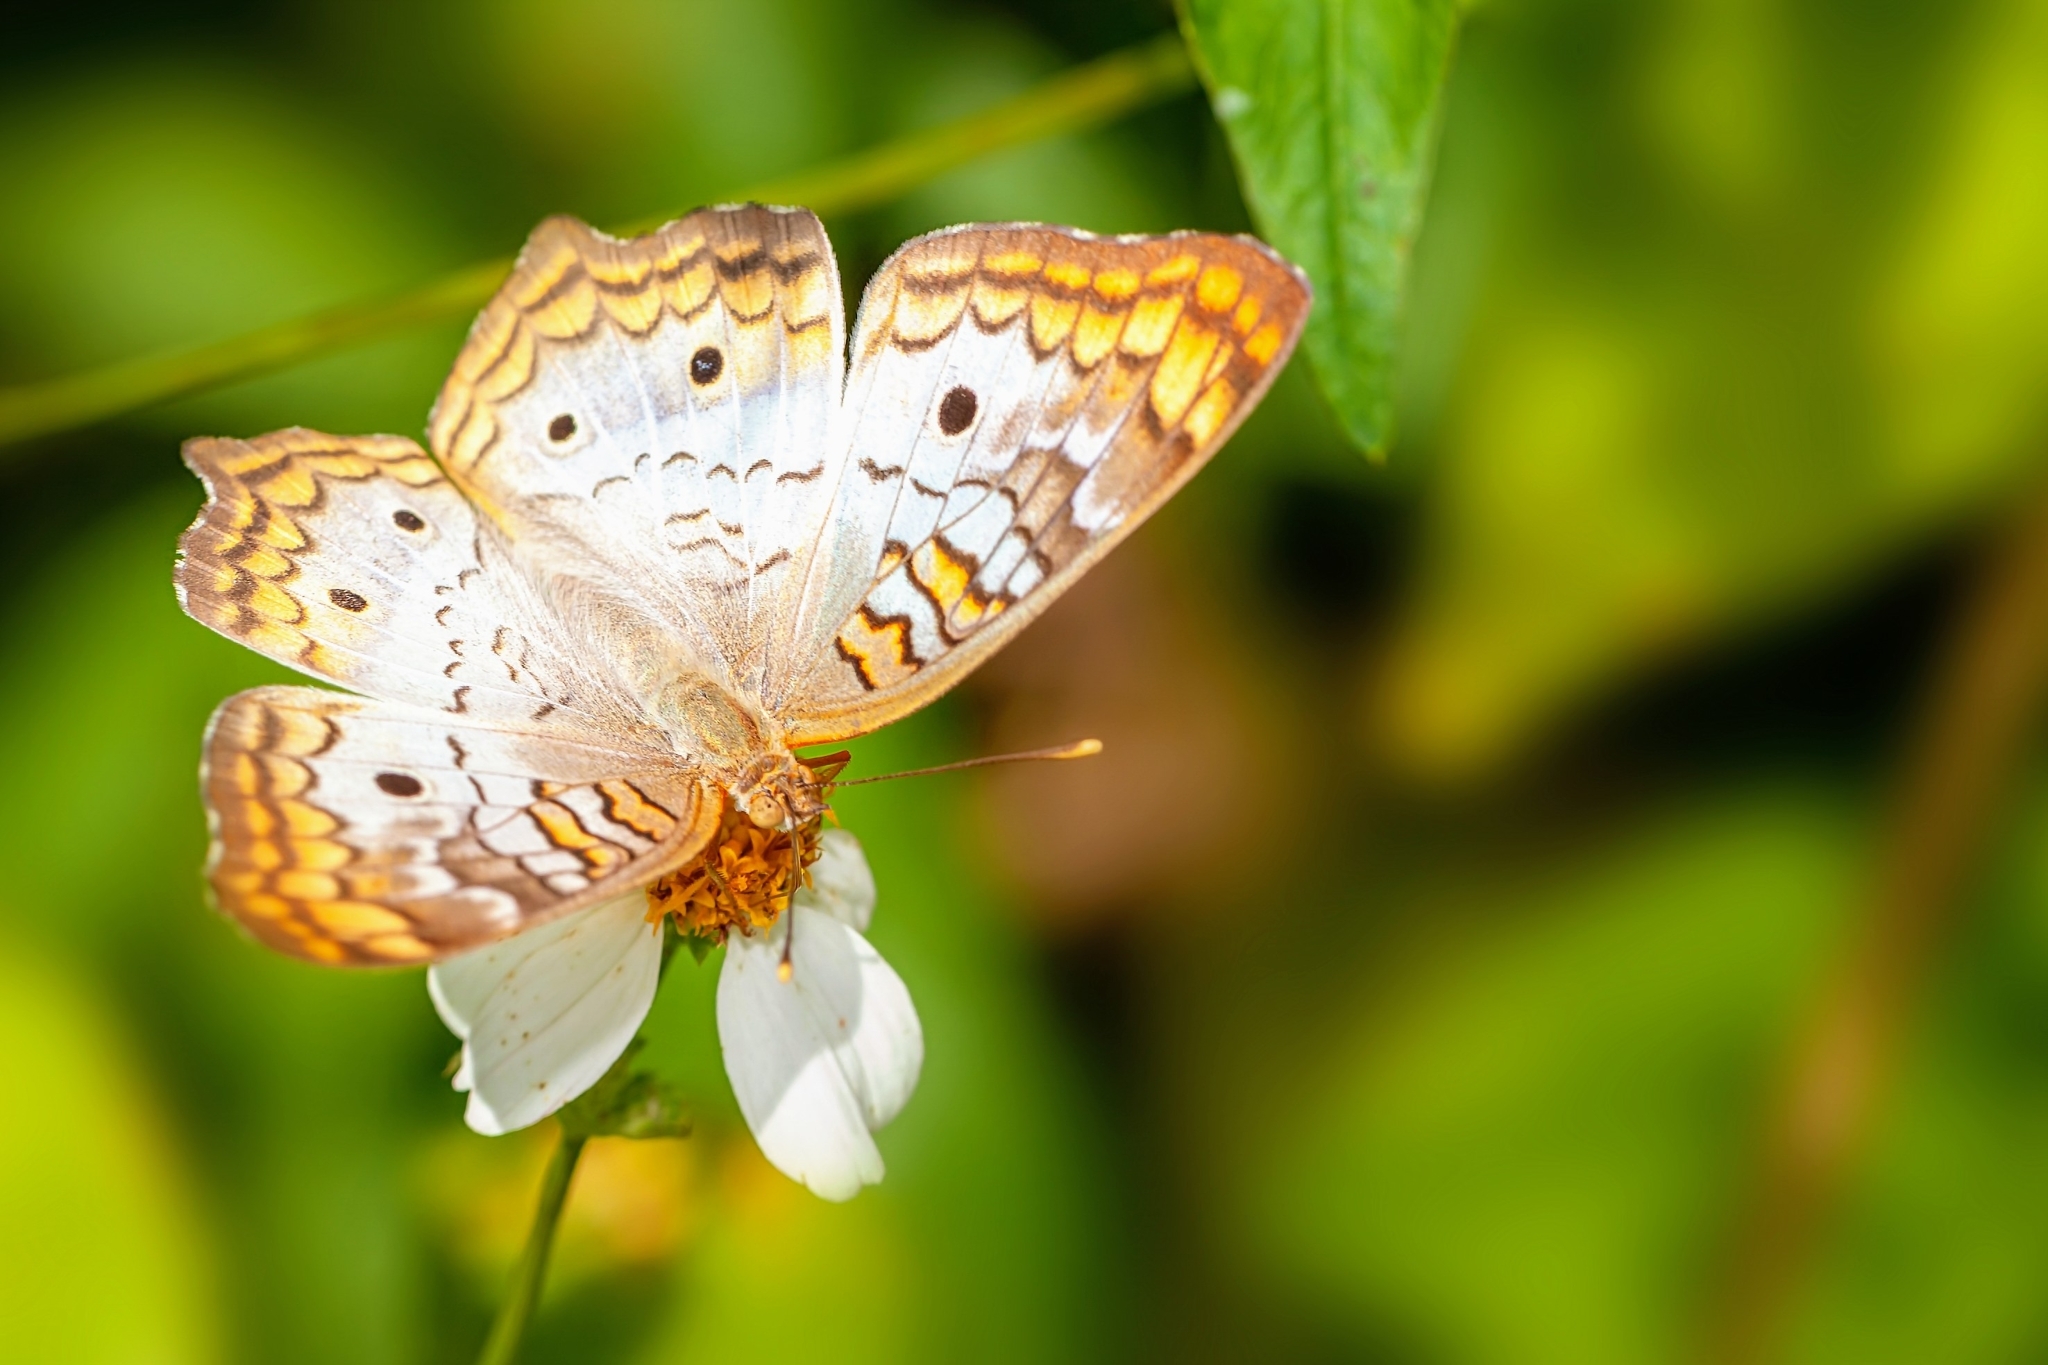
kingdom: Animalia
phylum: Arthropoda
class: Insecta
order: Lepidoptera
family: Nymphalidae
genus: Anartia
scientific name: Anartia jatrophae
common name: White peacock
